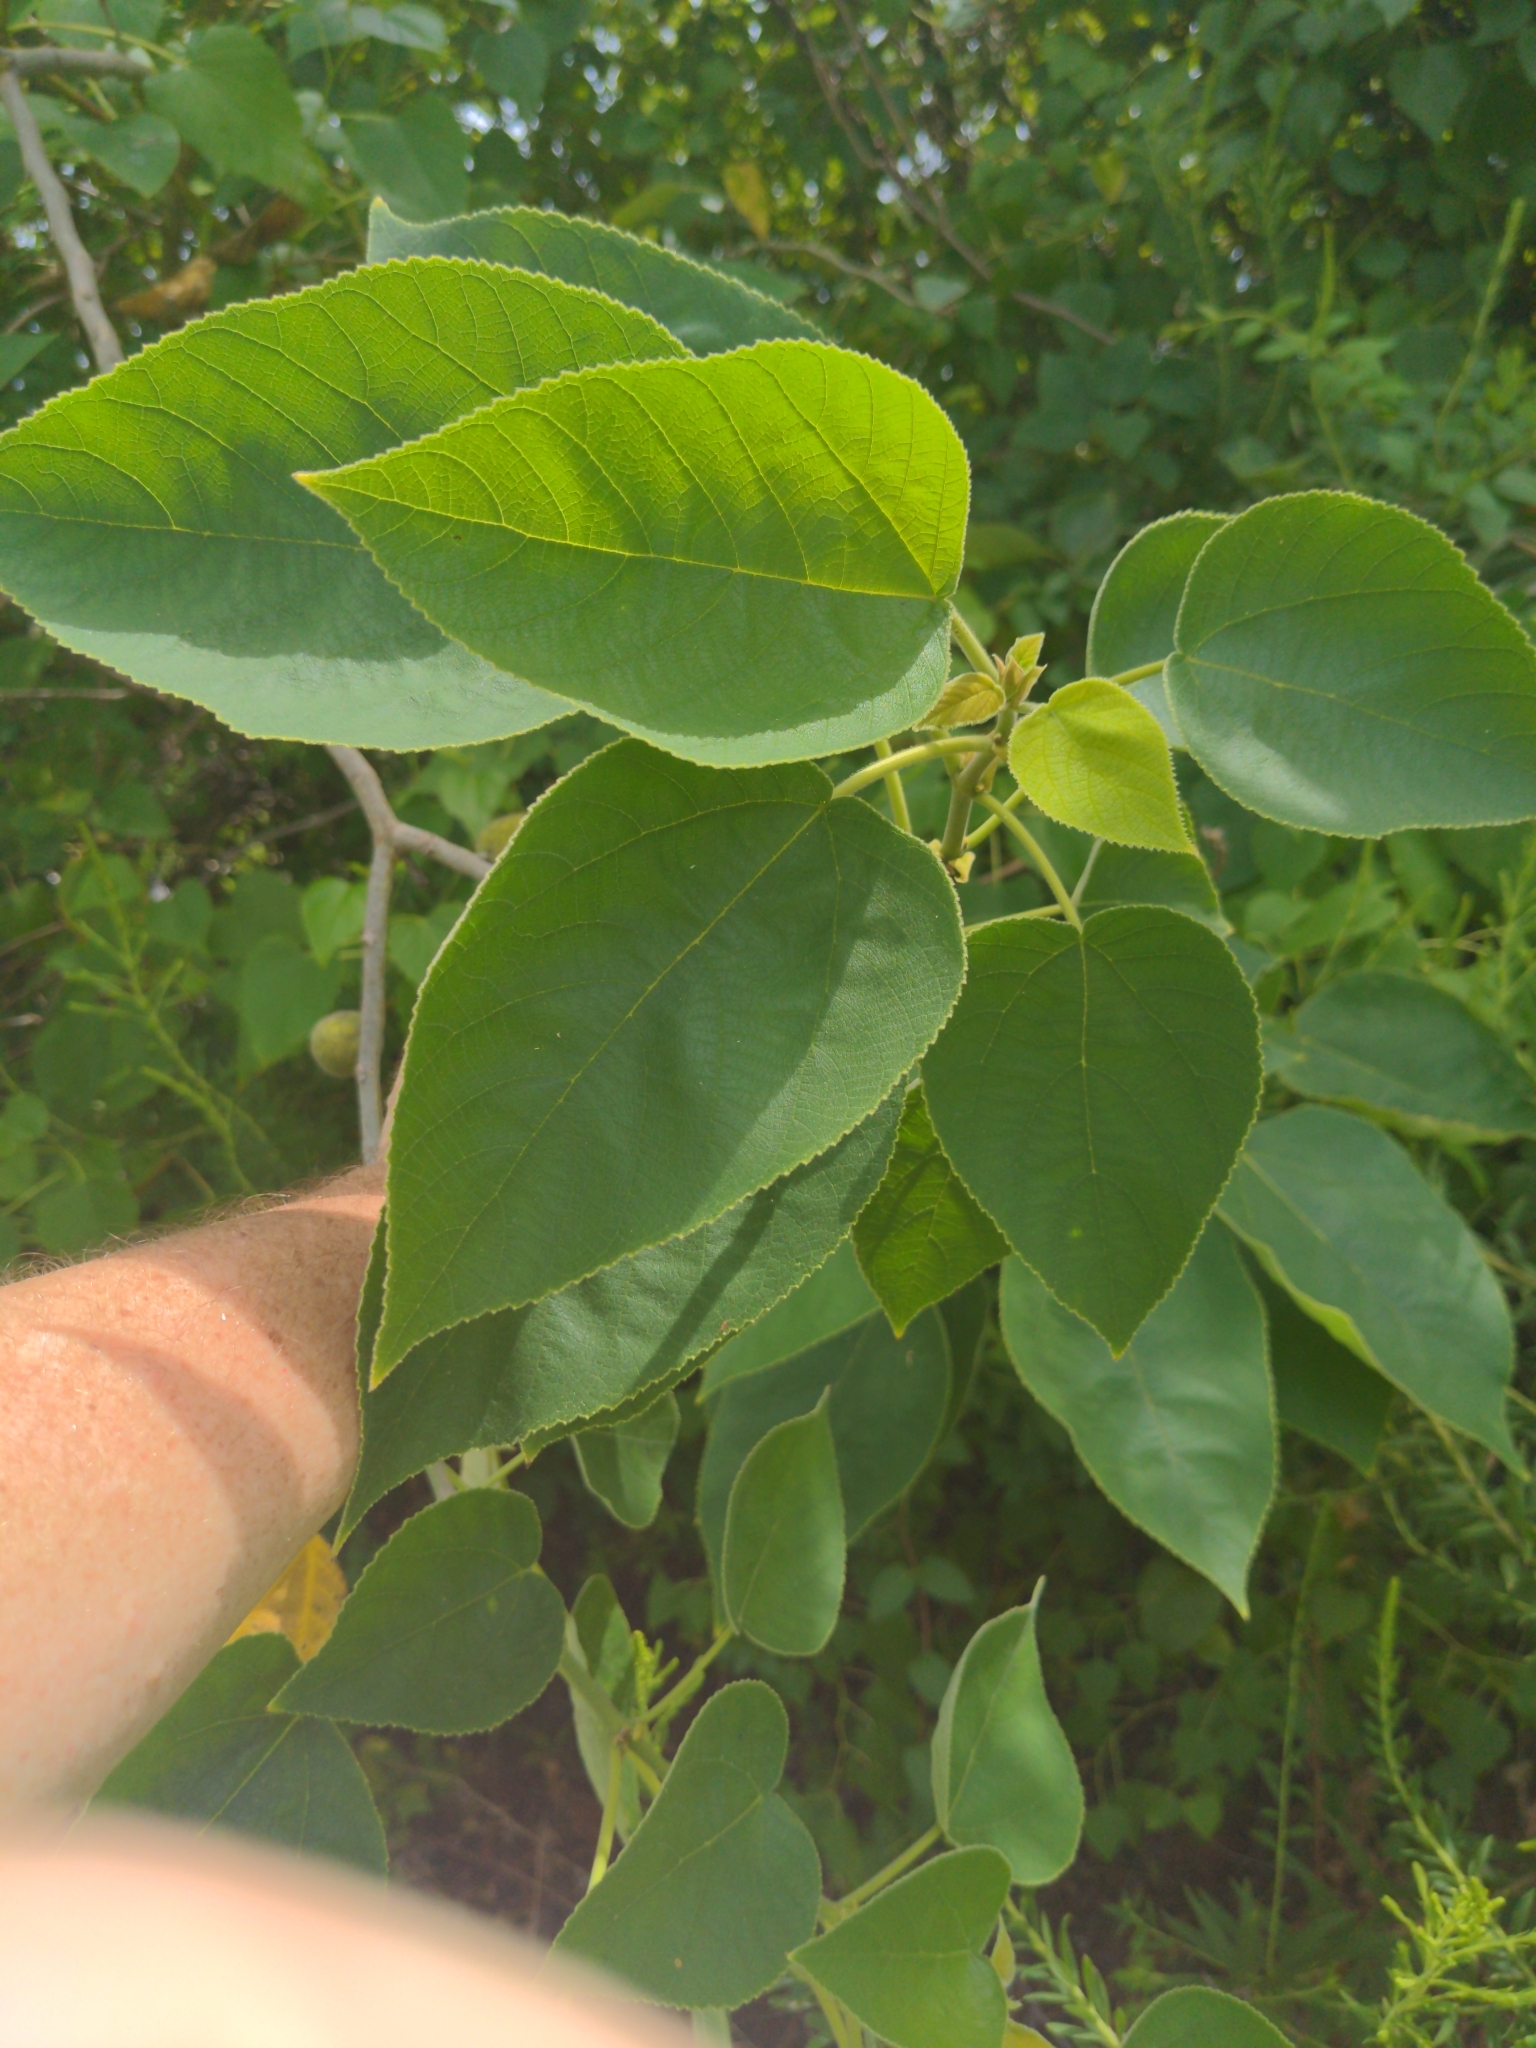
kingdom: Plantae
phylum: Tracheophyta
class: Magnoliopsida
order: Rosales
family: Moraceae
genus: Broussonetia
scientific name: Broussonetia papyrifera
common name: Paper mulberry
